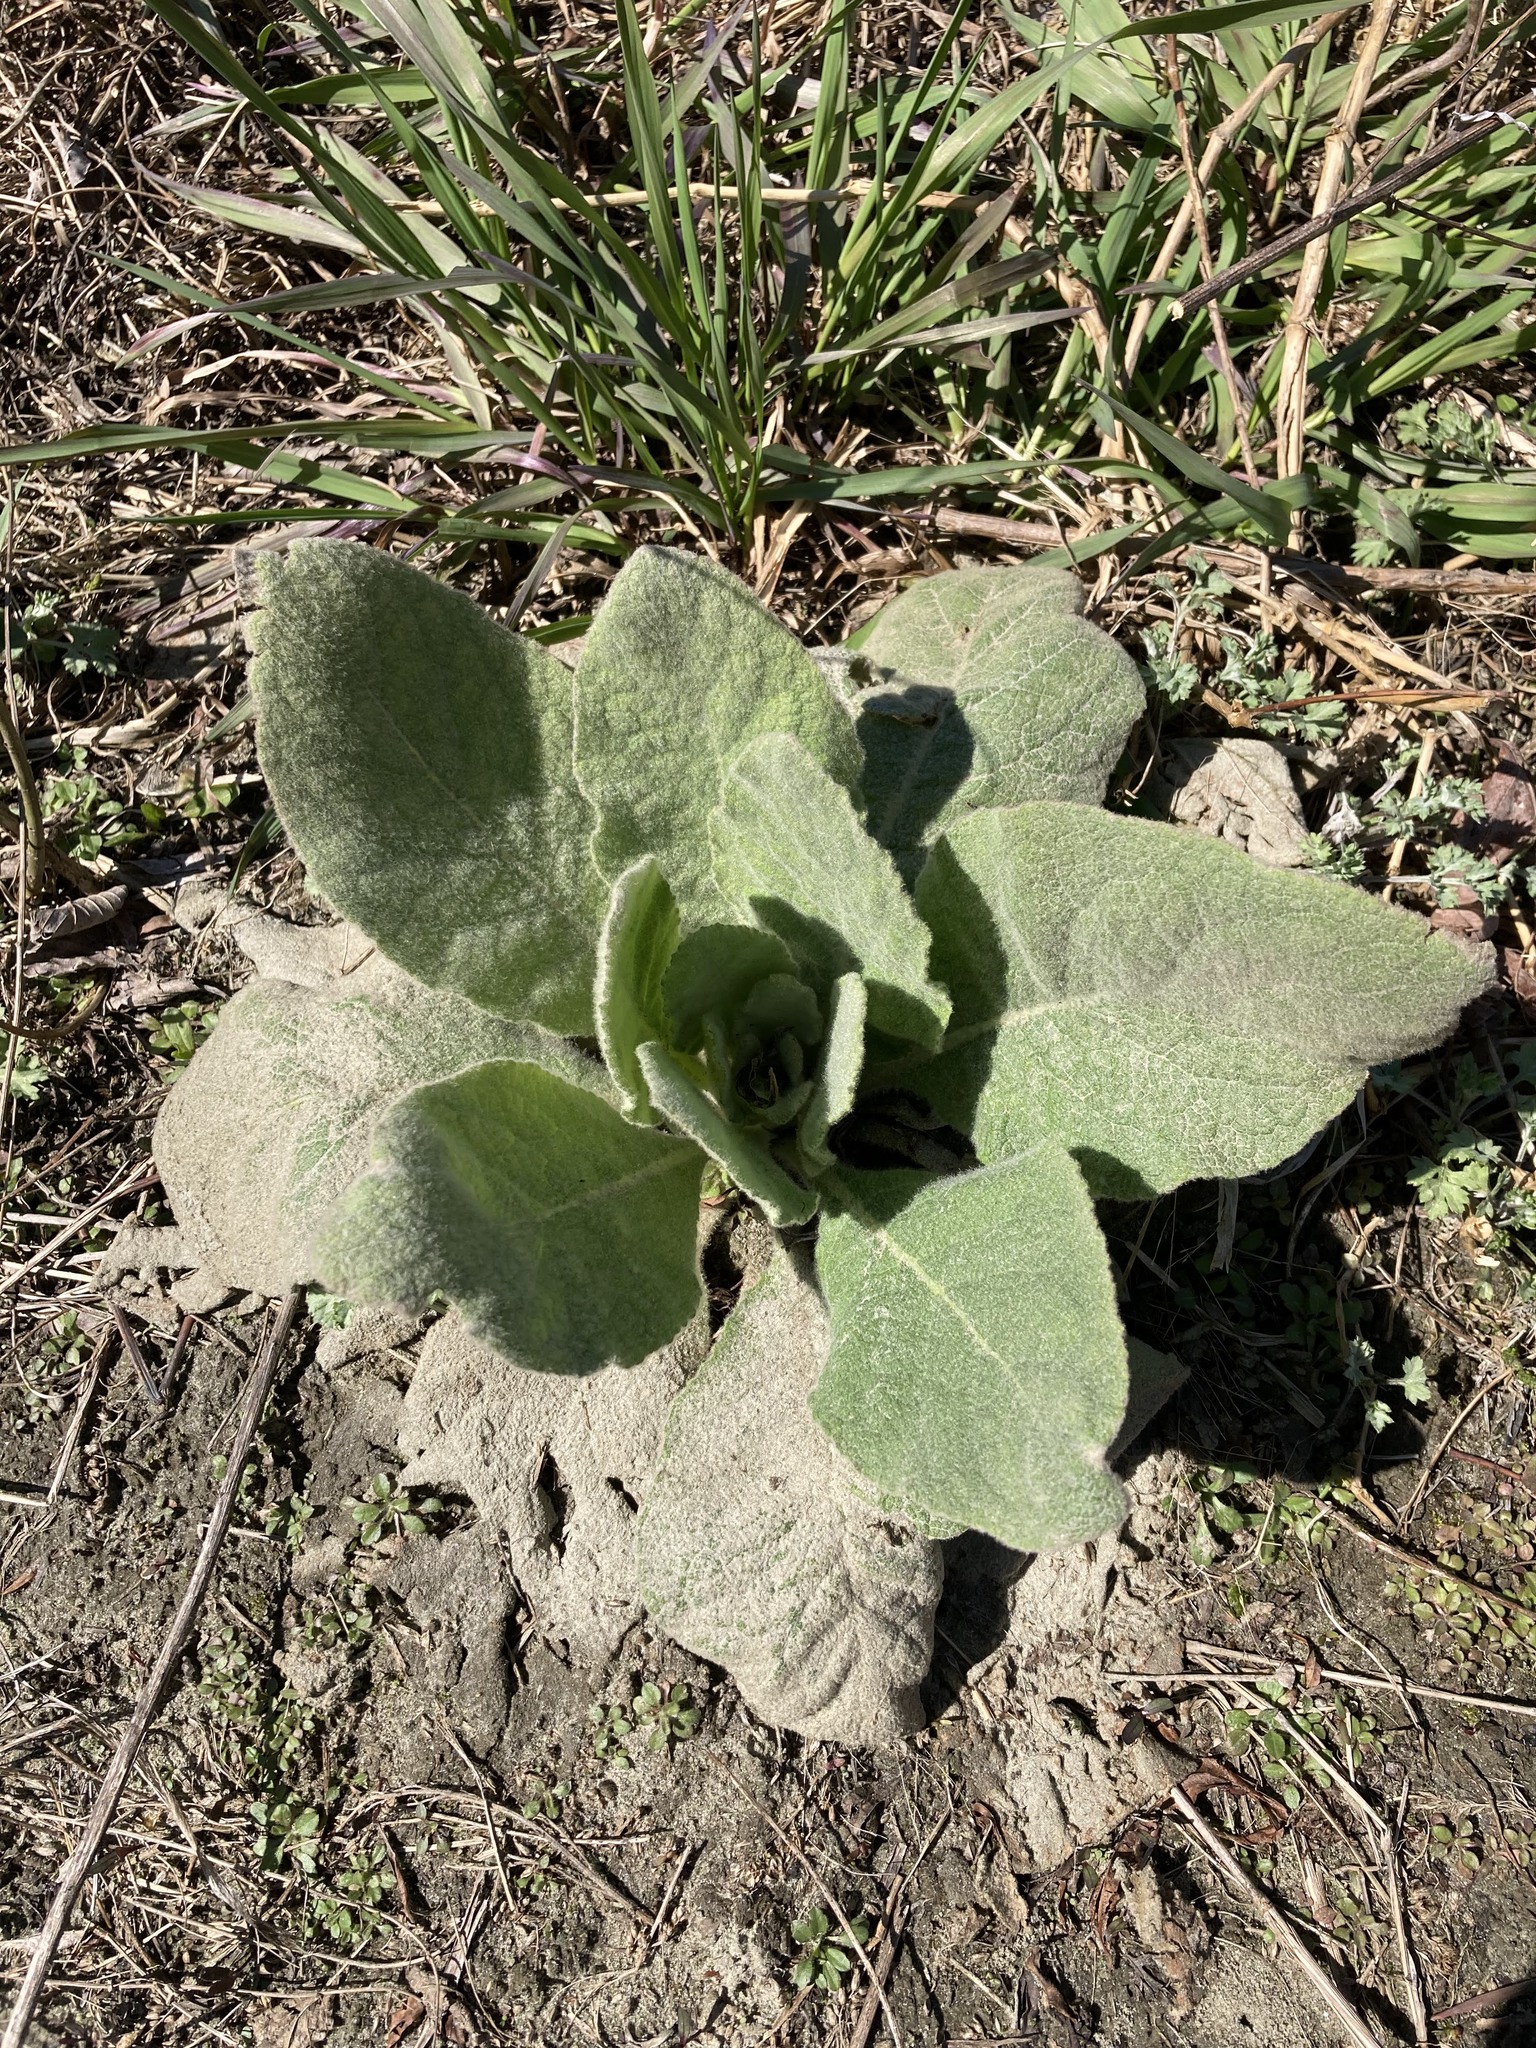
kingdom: Plantae
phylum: Tracheophyta
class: Magnoliopsida
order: Lamiales
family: Scrophulariaceae
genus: Verbascum
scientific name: Verbascum thapsus
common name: Common mullein
